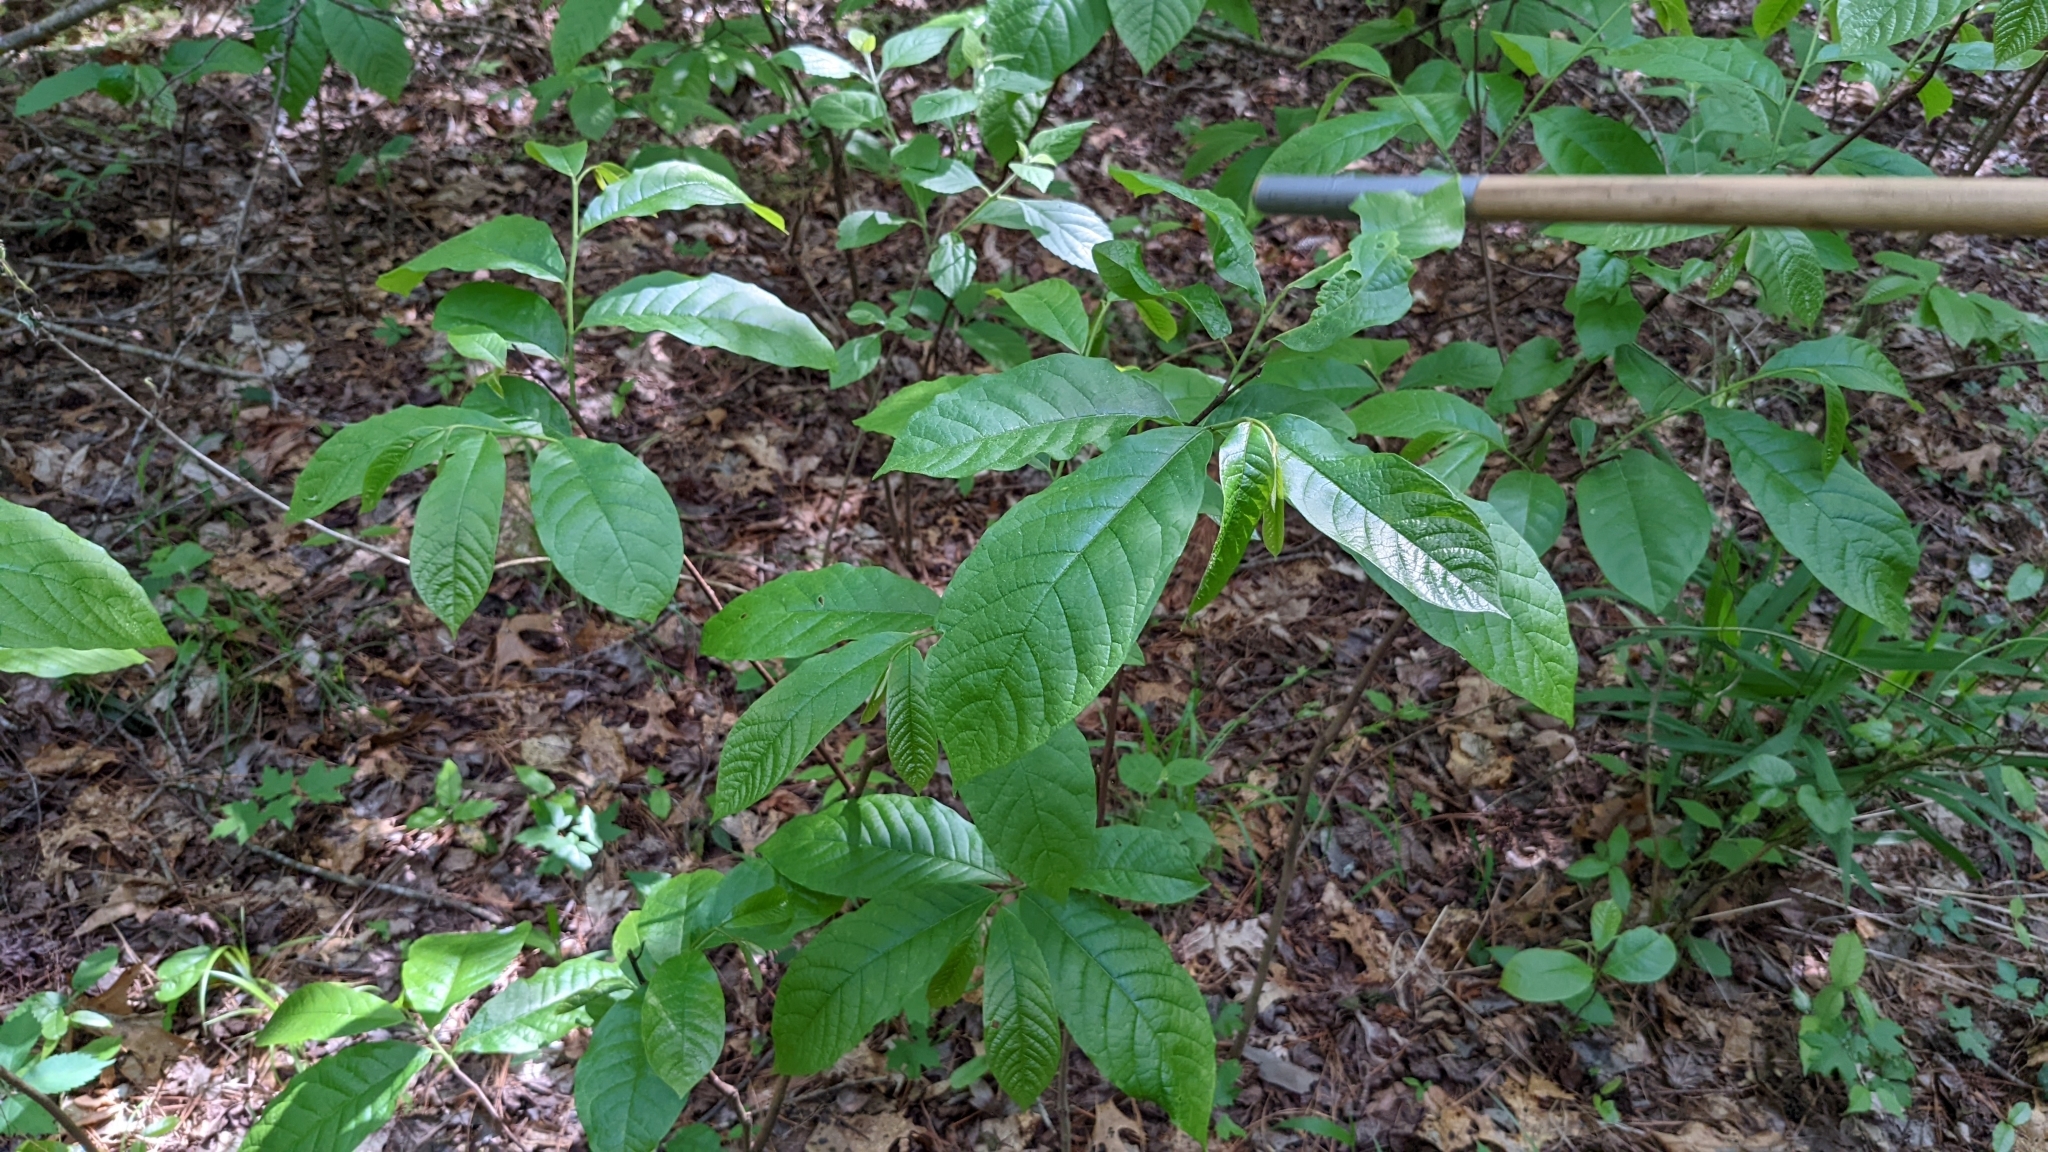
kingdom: Plantae
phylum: Tracheophyta
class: Magnoliopsida
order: Magnoliales
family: Annonaceae
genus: Asimina
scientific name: Asimina triloba
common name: Dog-banana
